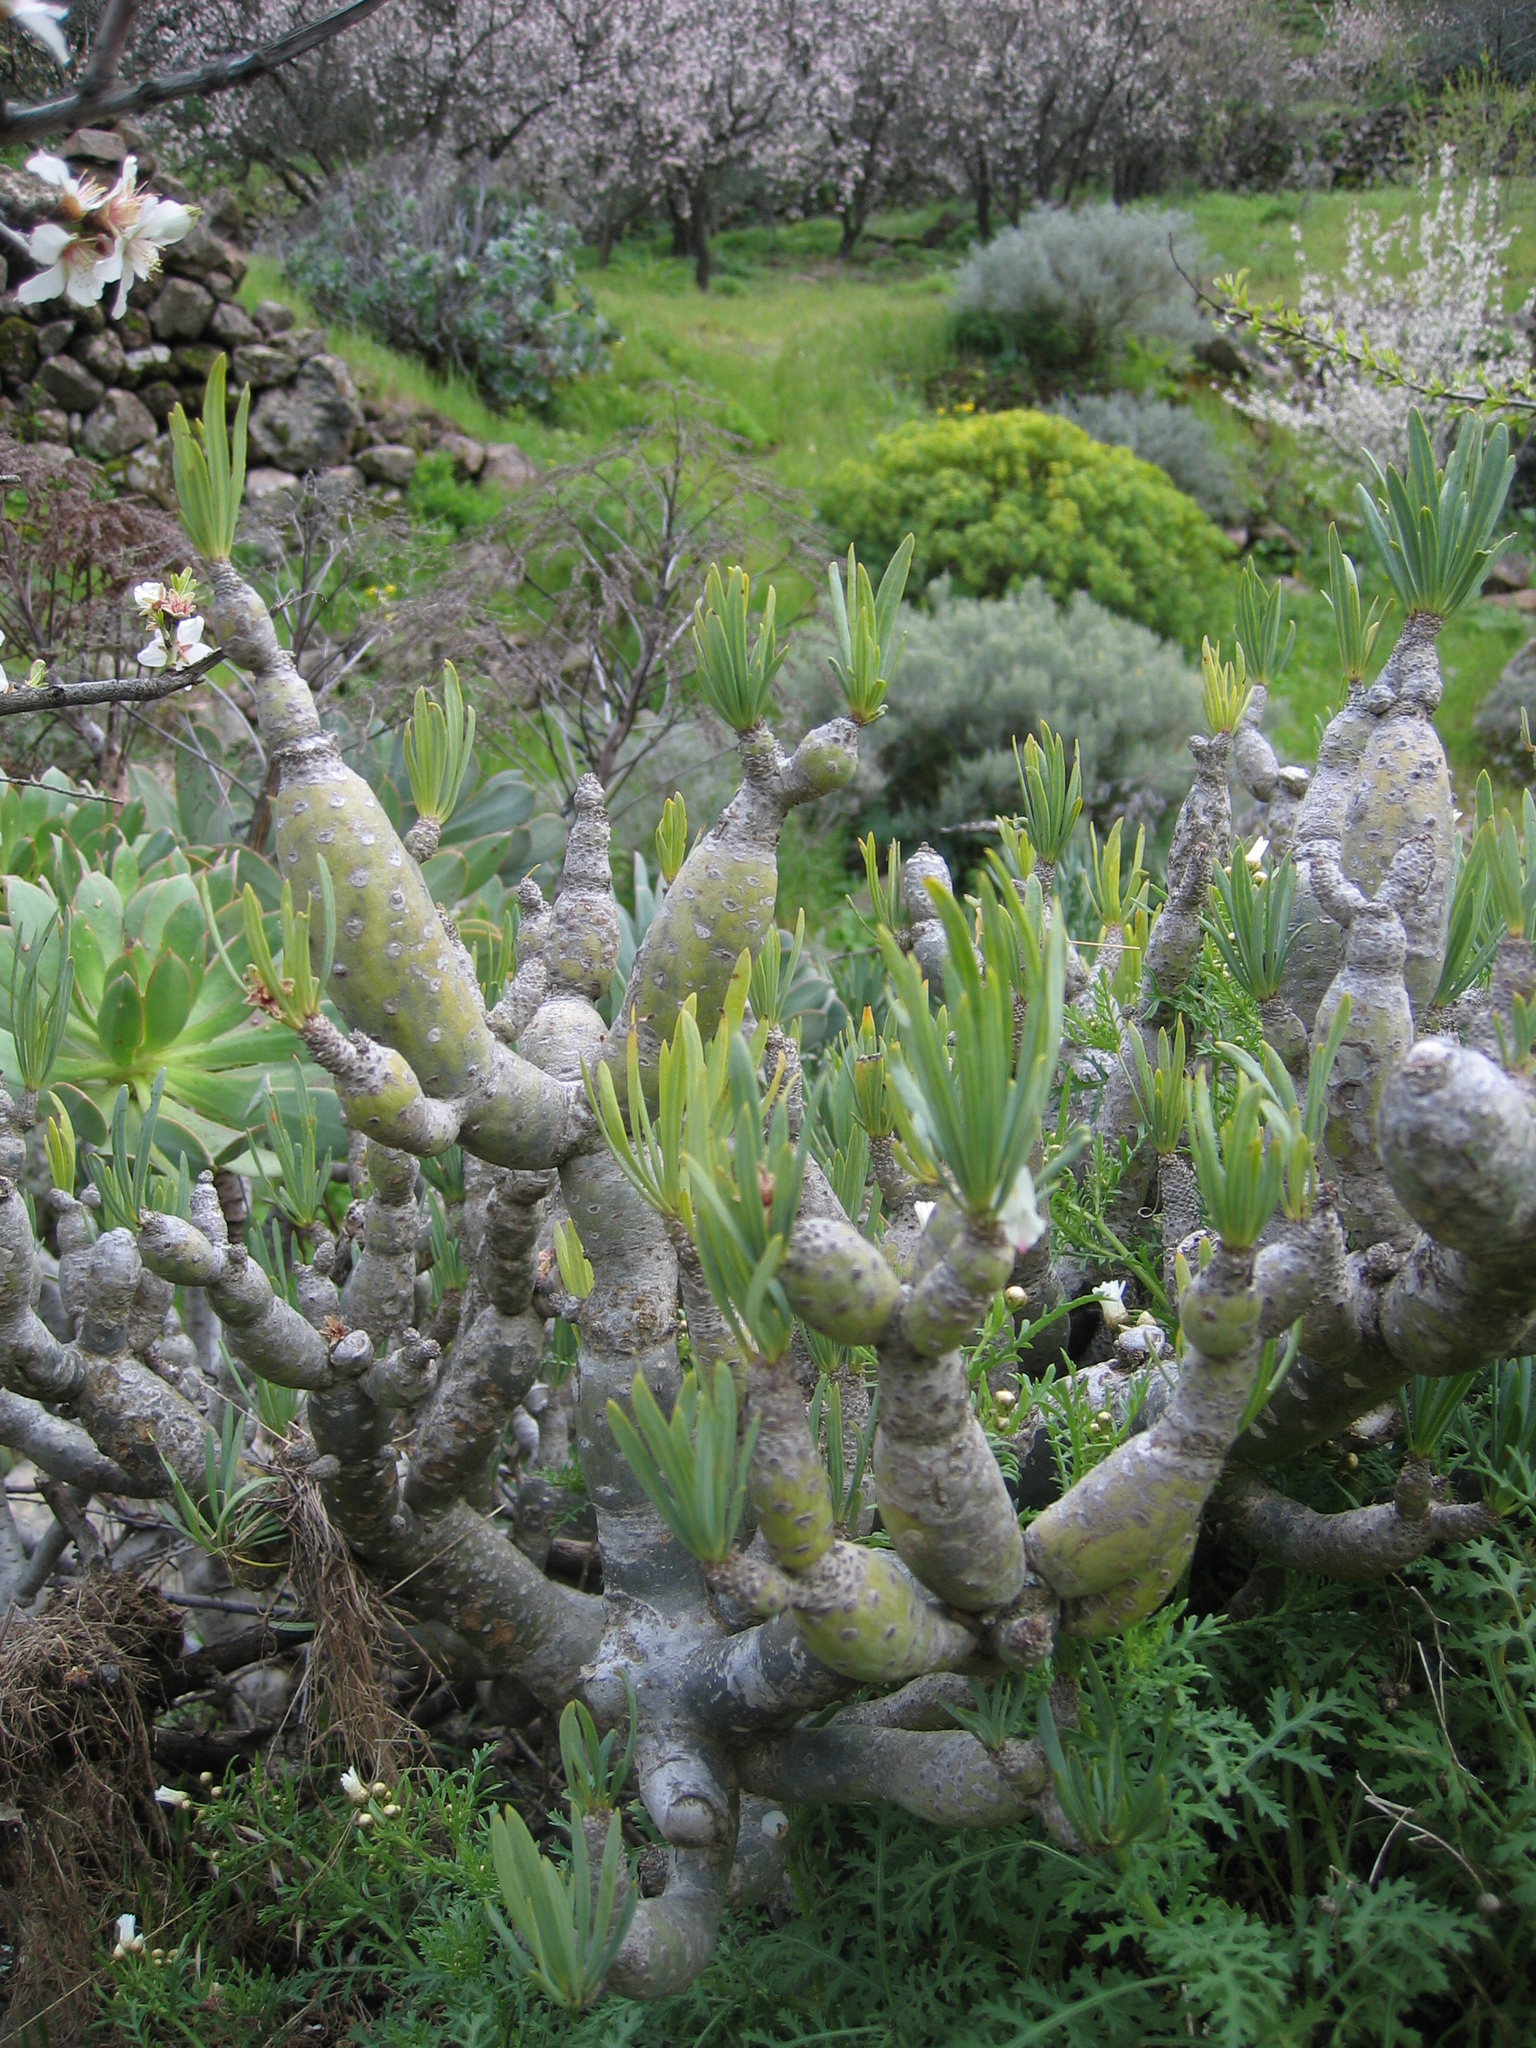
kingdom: Plantae
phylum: Tracheophyta
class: Magnoliopsida
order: Asterales
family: Asteraceae
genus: Kleinia
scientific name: Kleinia neriifolia
